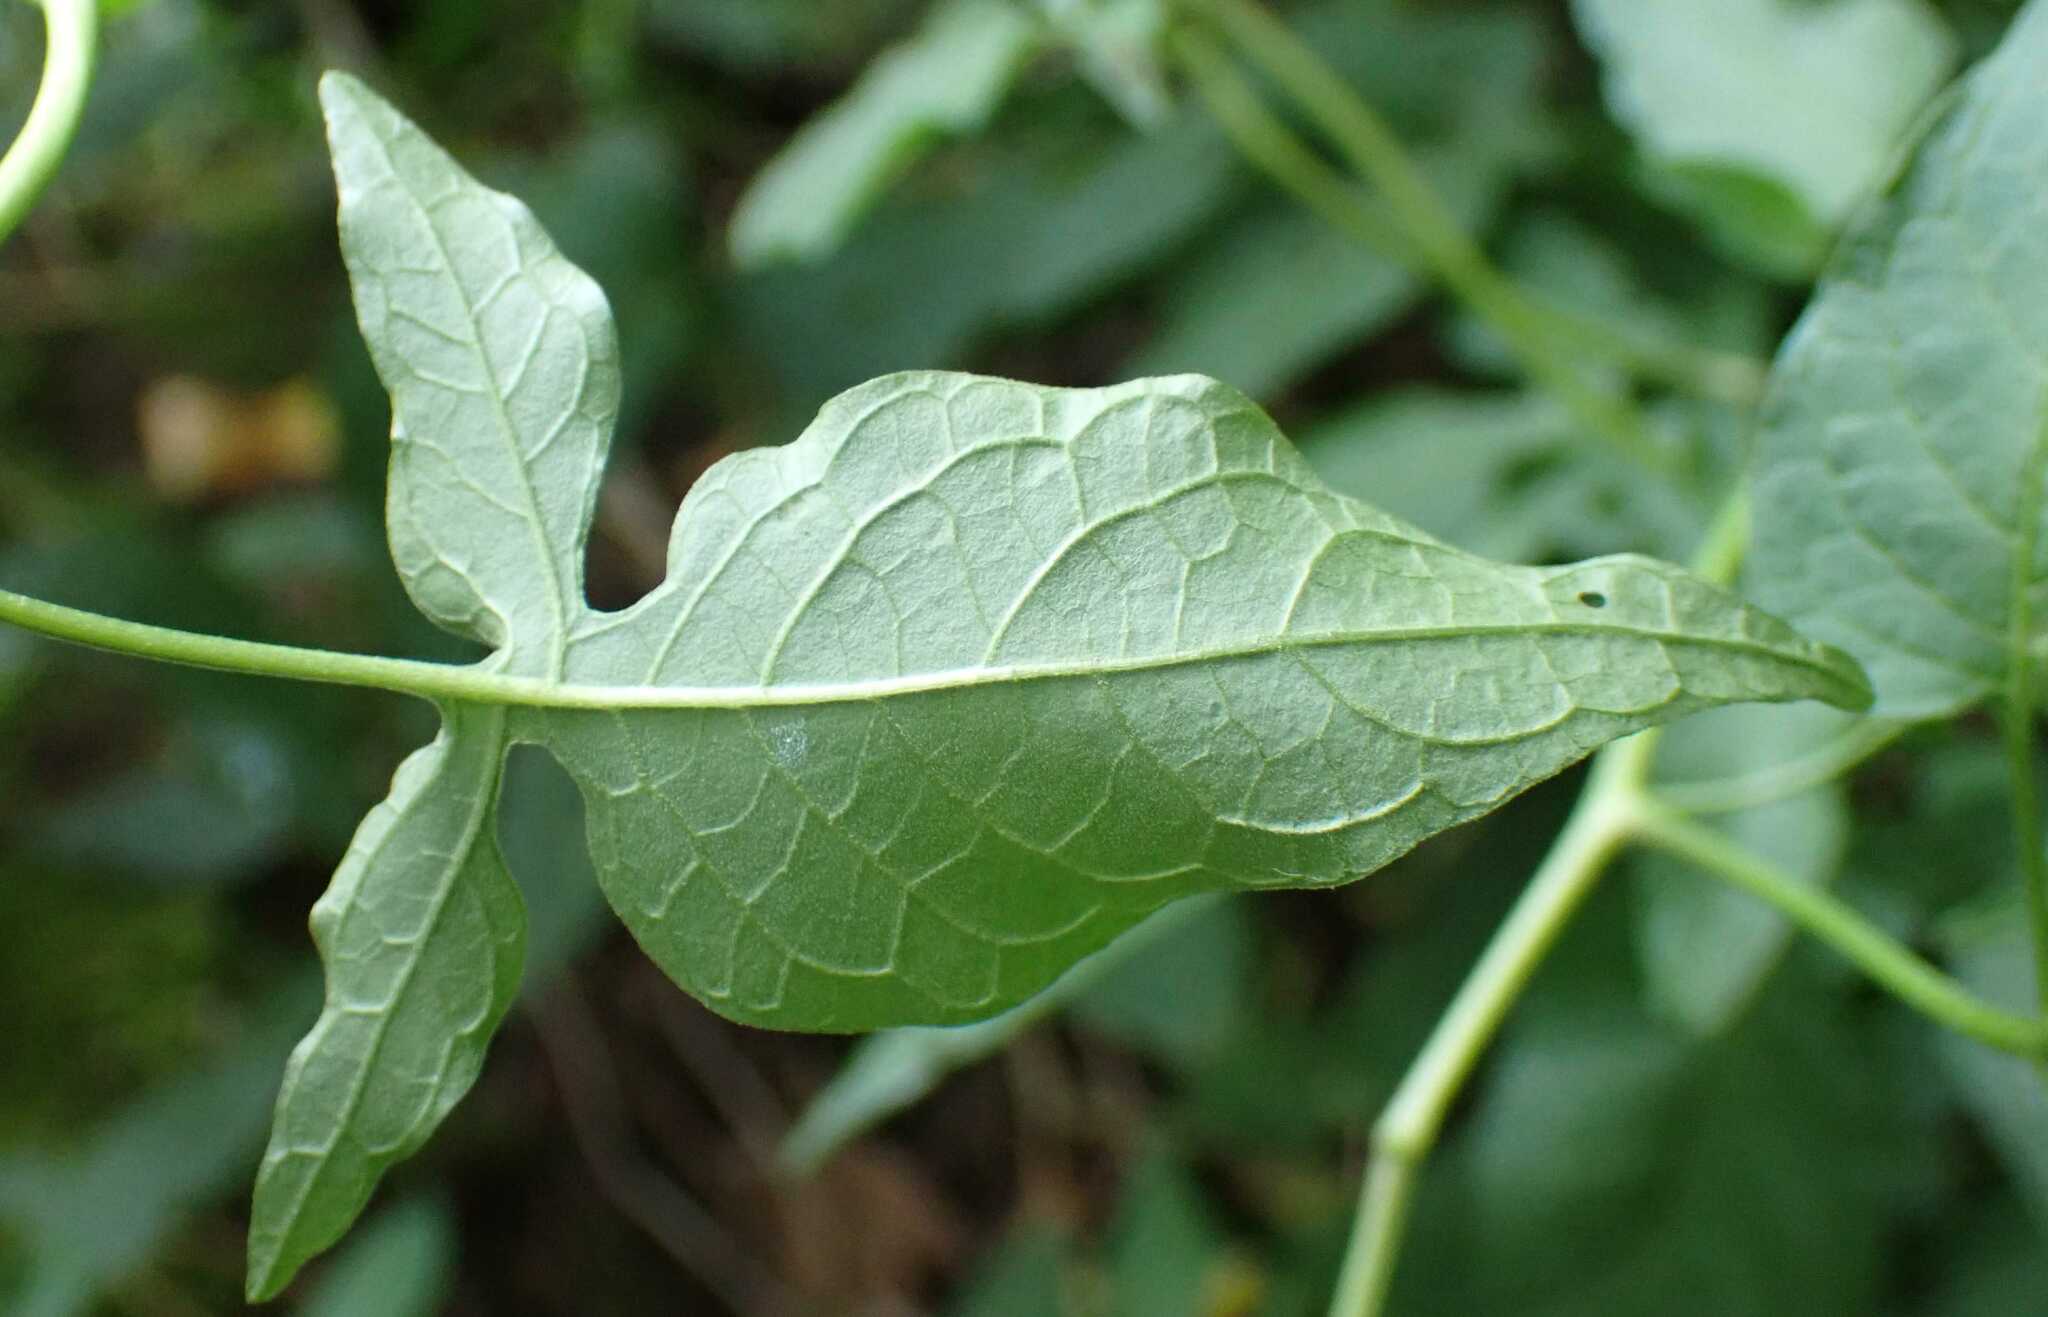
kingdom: Plantae
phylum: Tracheophyta
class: Magnoliopsida
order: Solanales
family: Solanaceae
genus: Solanum
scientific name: Solanum dulcamara
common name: Climbing nightshade
